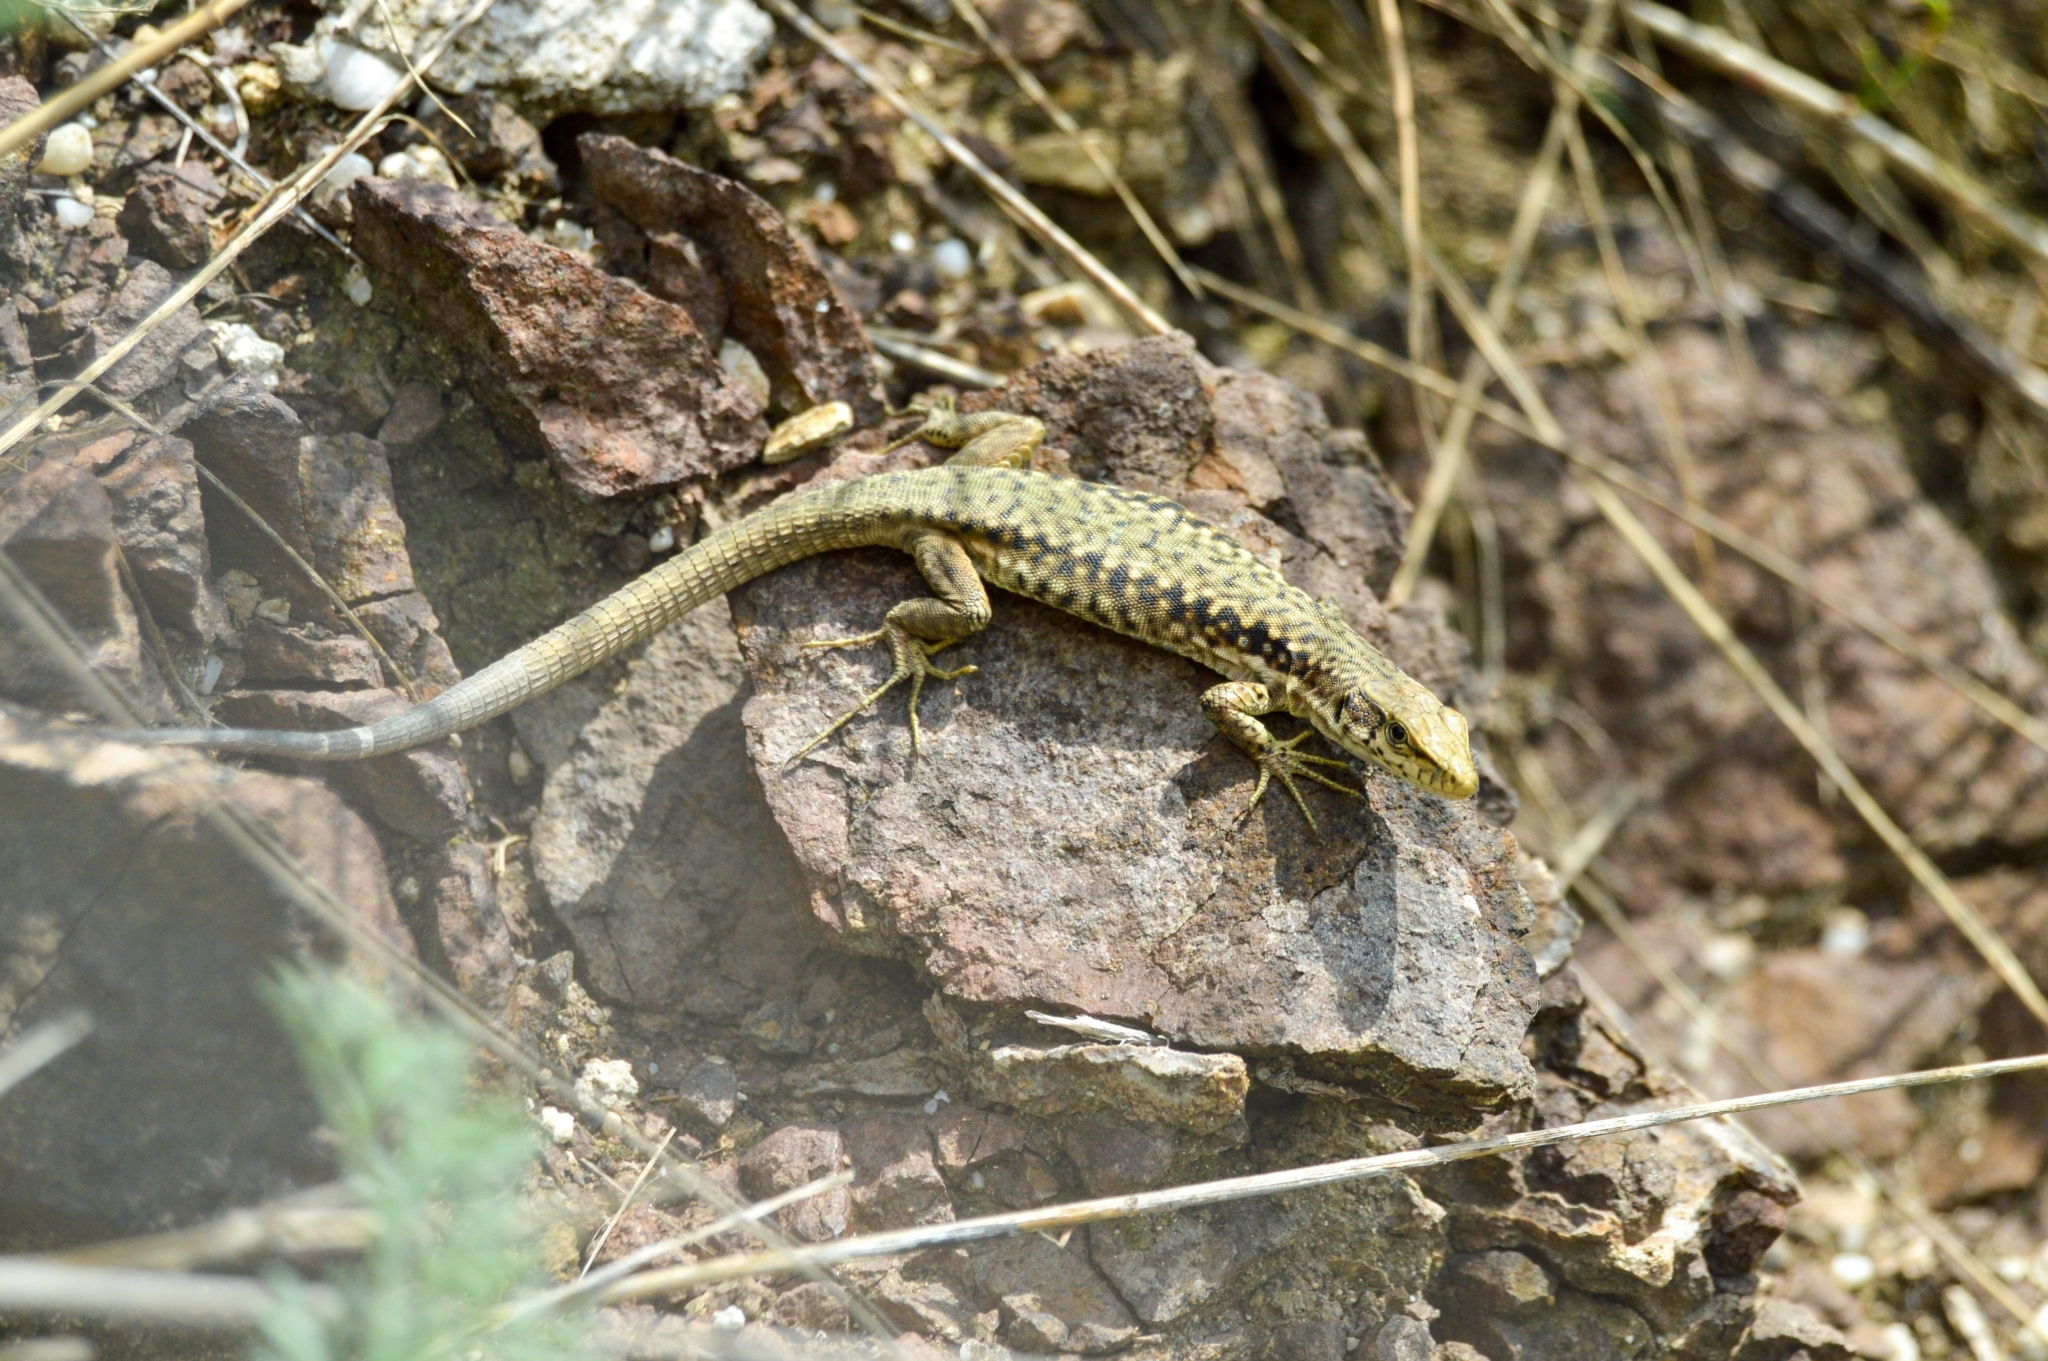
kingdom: Animalia
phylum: Chordata
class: Squamata
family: Lacertidae
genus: Darevskia
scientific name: Darevskia lindholmi
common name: Crimean rock lizard
